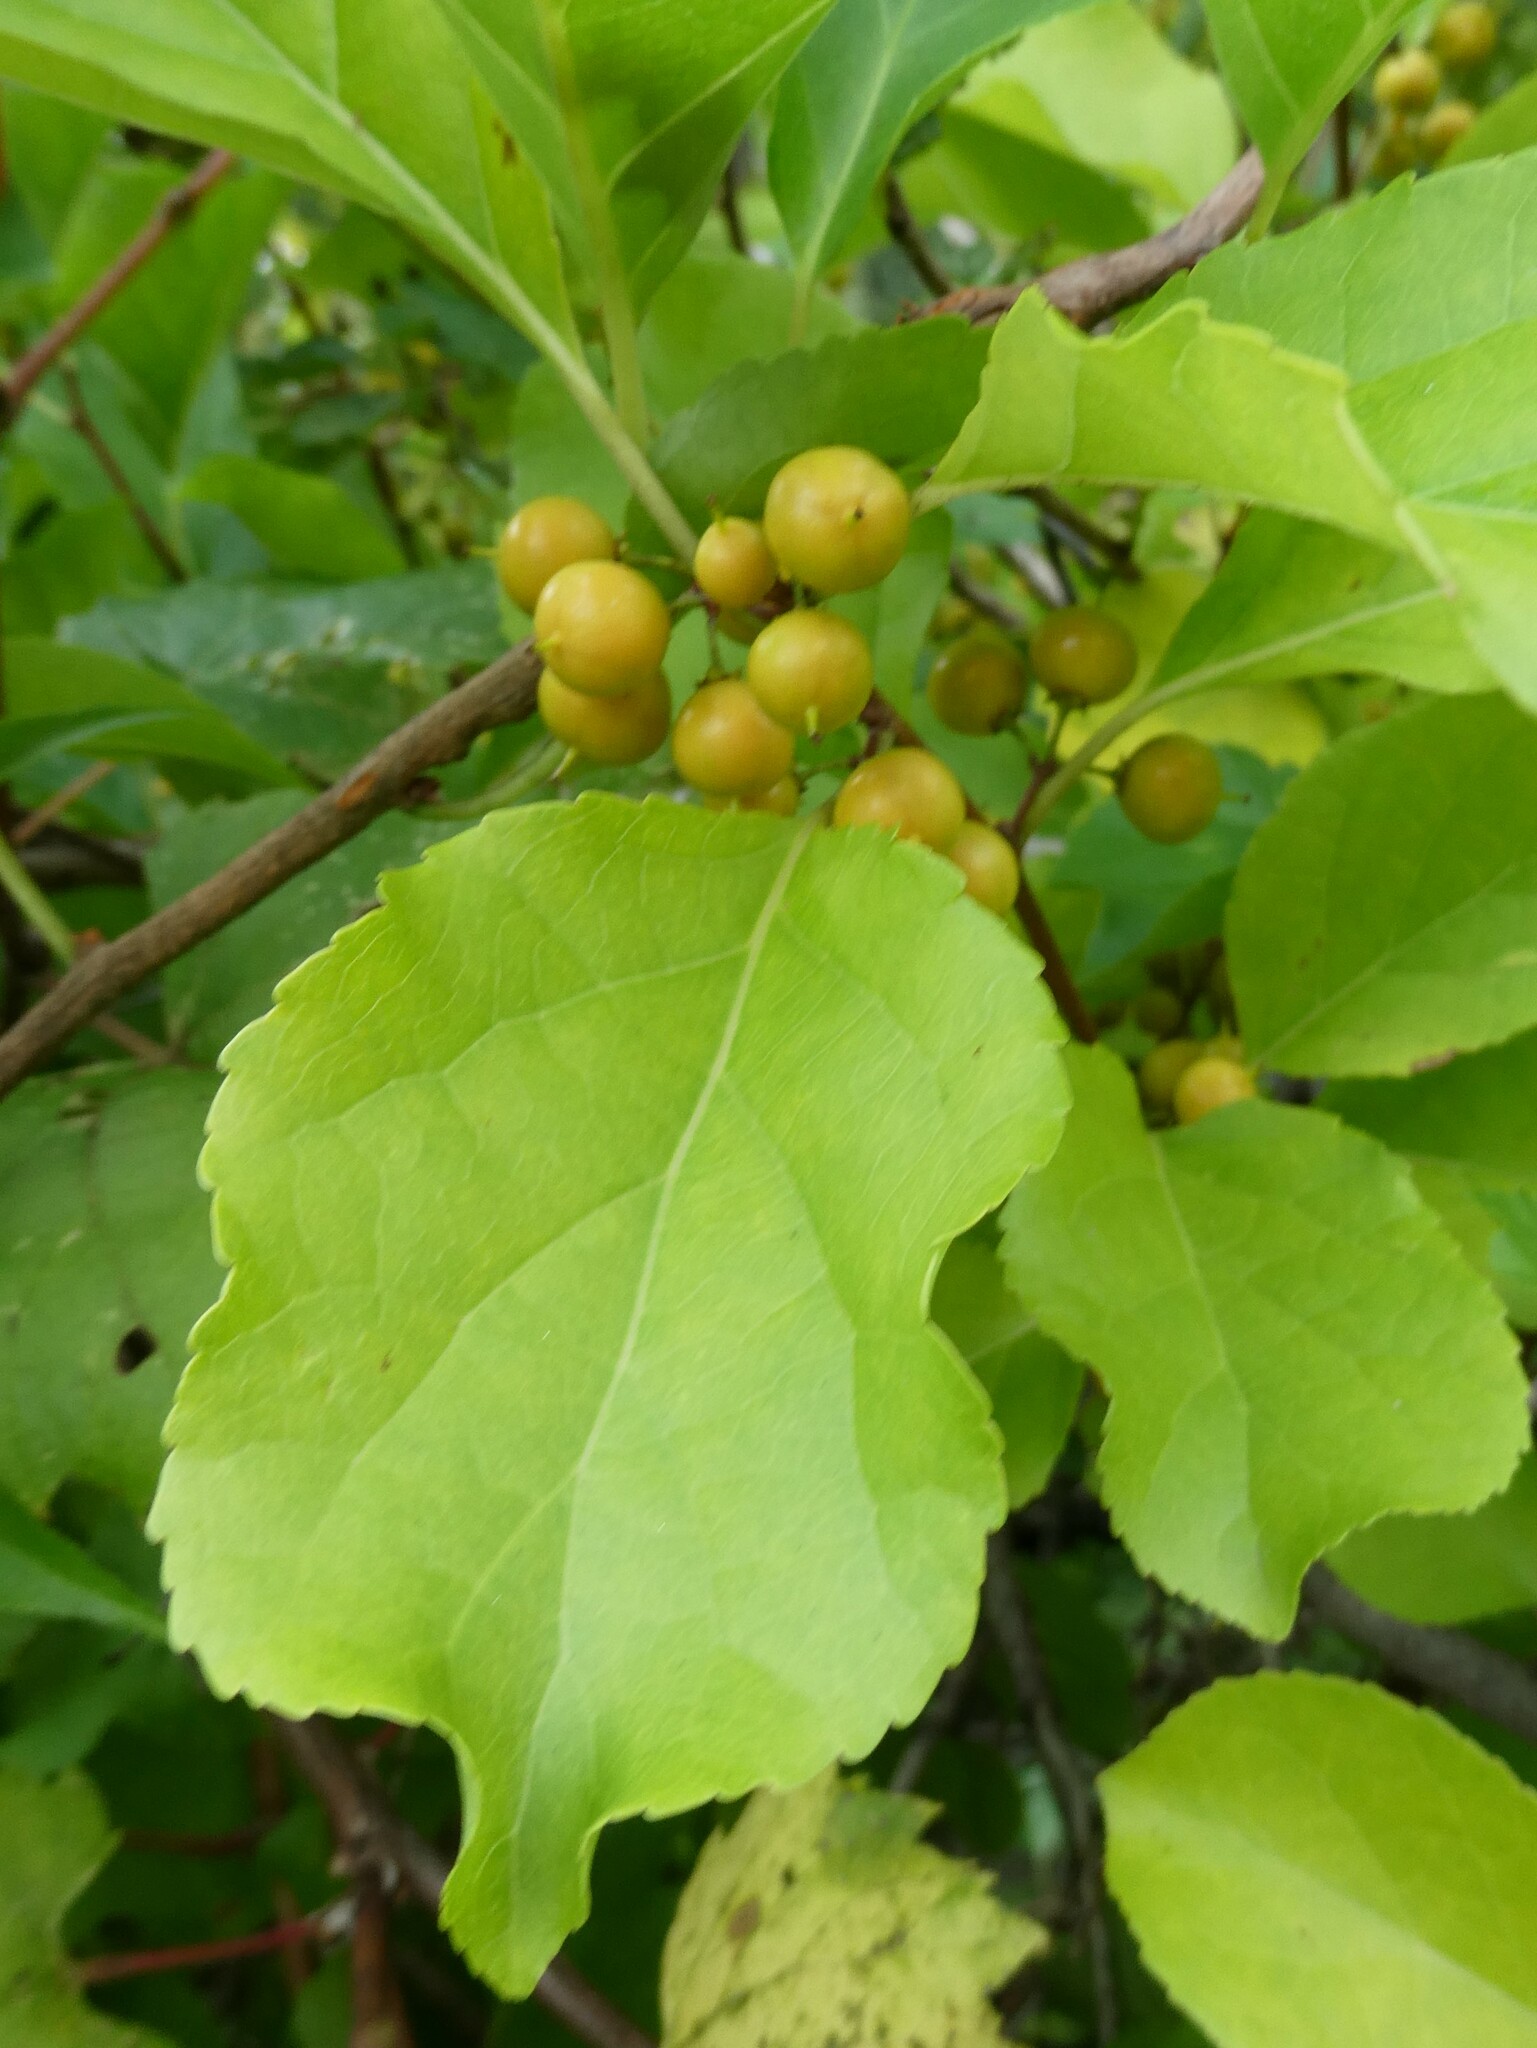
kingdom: Plantae
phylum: Tracheophyta
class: Magnoliopsida
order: Celastrales
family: Celastraceae
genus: Celastrus
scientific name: Celastrus orbiculatus
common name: Oriental bittersweet
